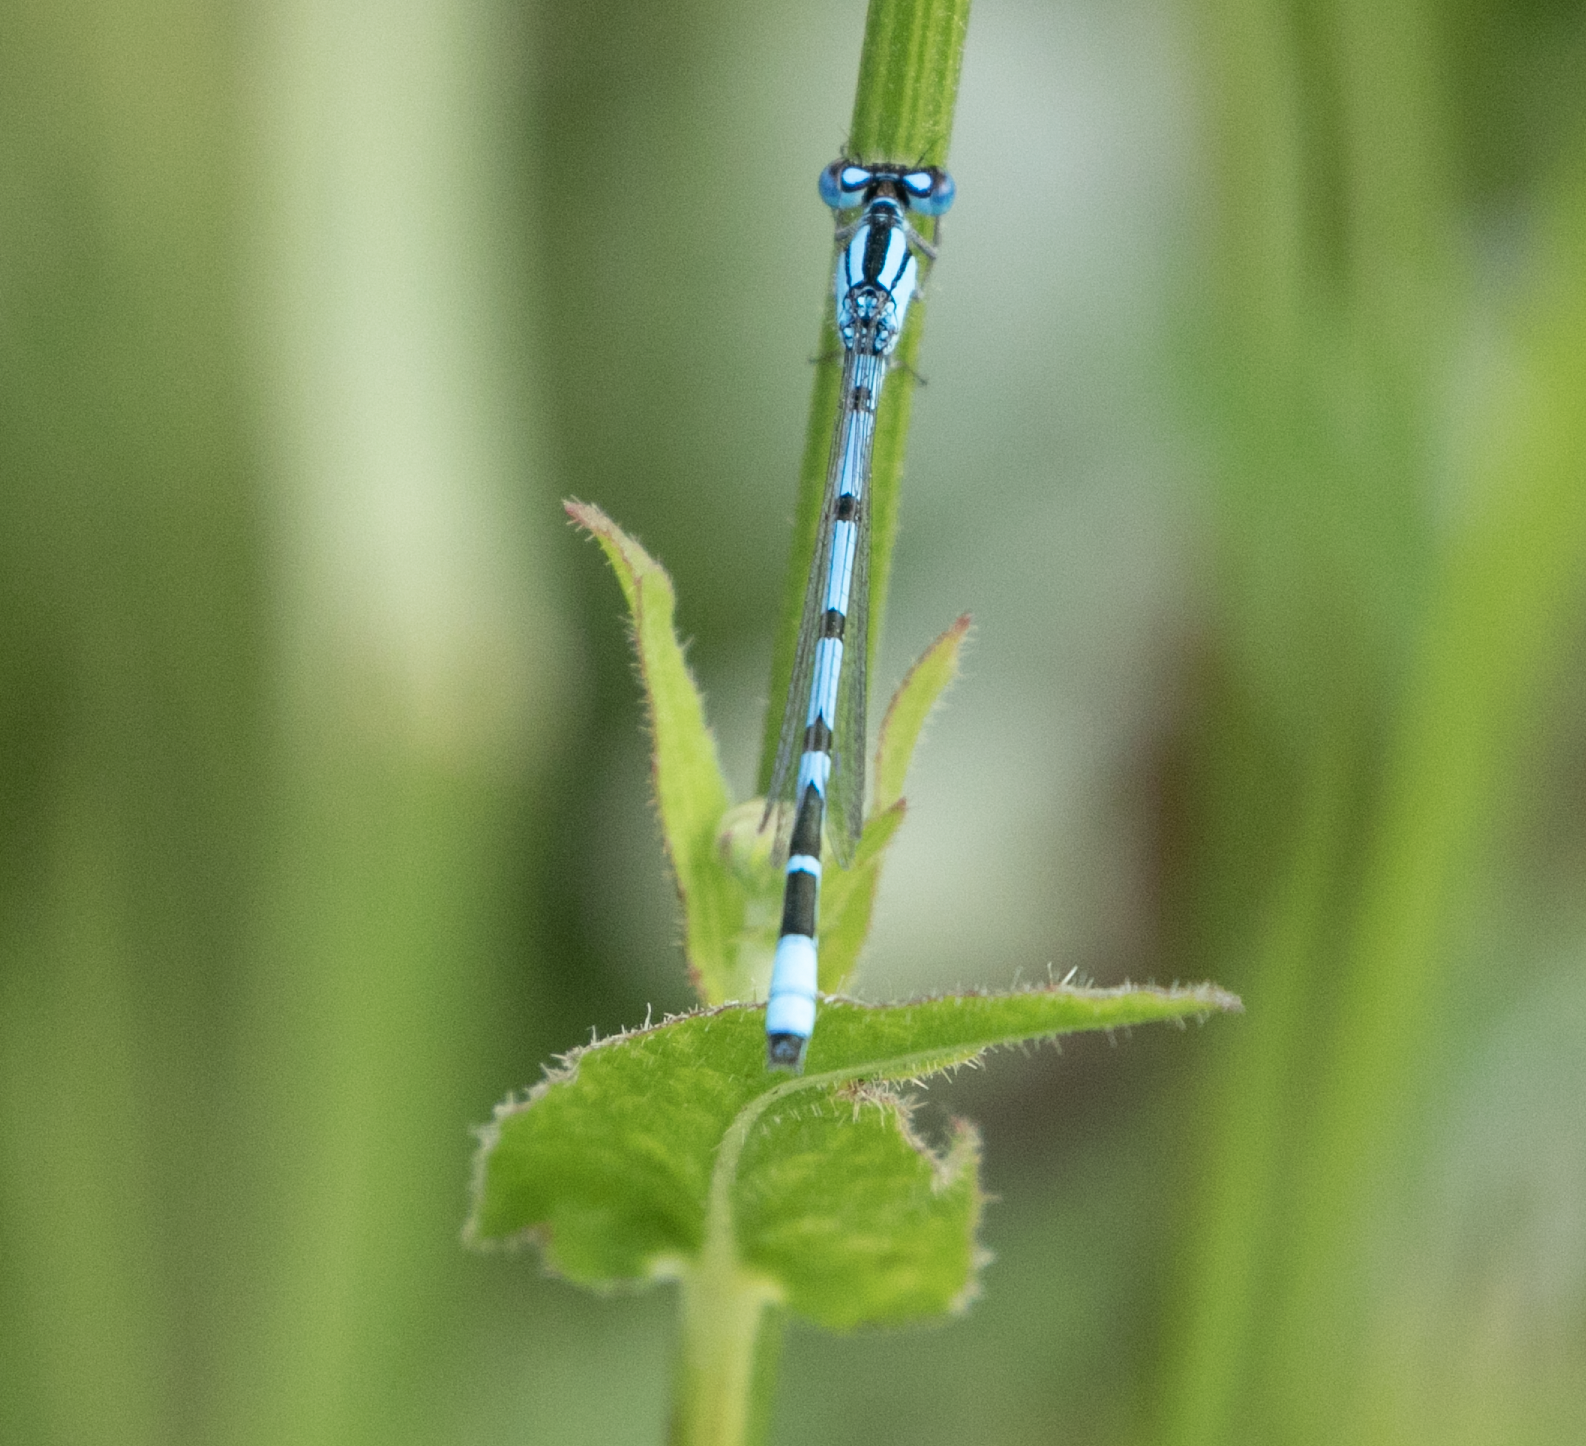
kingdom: Animalia
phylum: Arthropoda
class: Insecta
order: Odonata
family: Coenagrionidae
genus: Enallagma
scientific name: Enallagma cyathigerum
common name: Common blue damselfly
